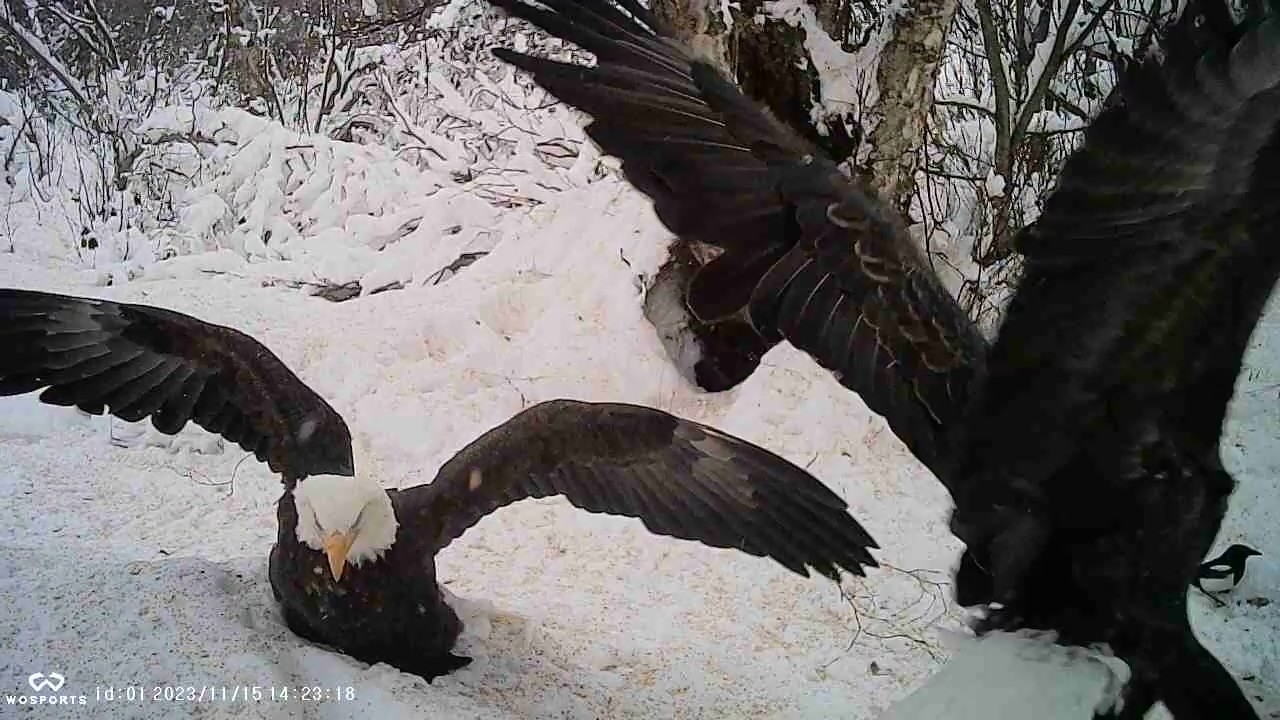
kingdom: Animalia
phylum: Chordata
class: Aves
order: Accipitriformes
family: Accipitridae
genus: Haliaeetus
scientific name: Haliaeetus leucocephalus
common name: Bald eagle
